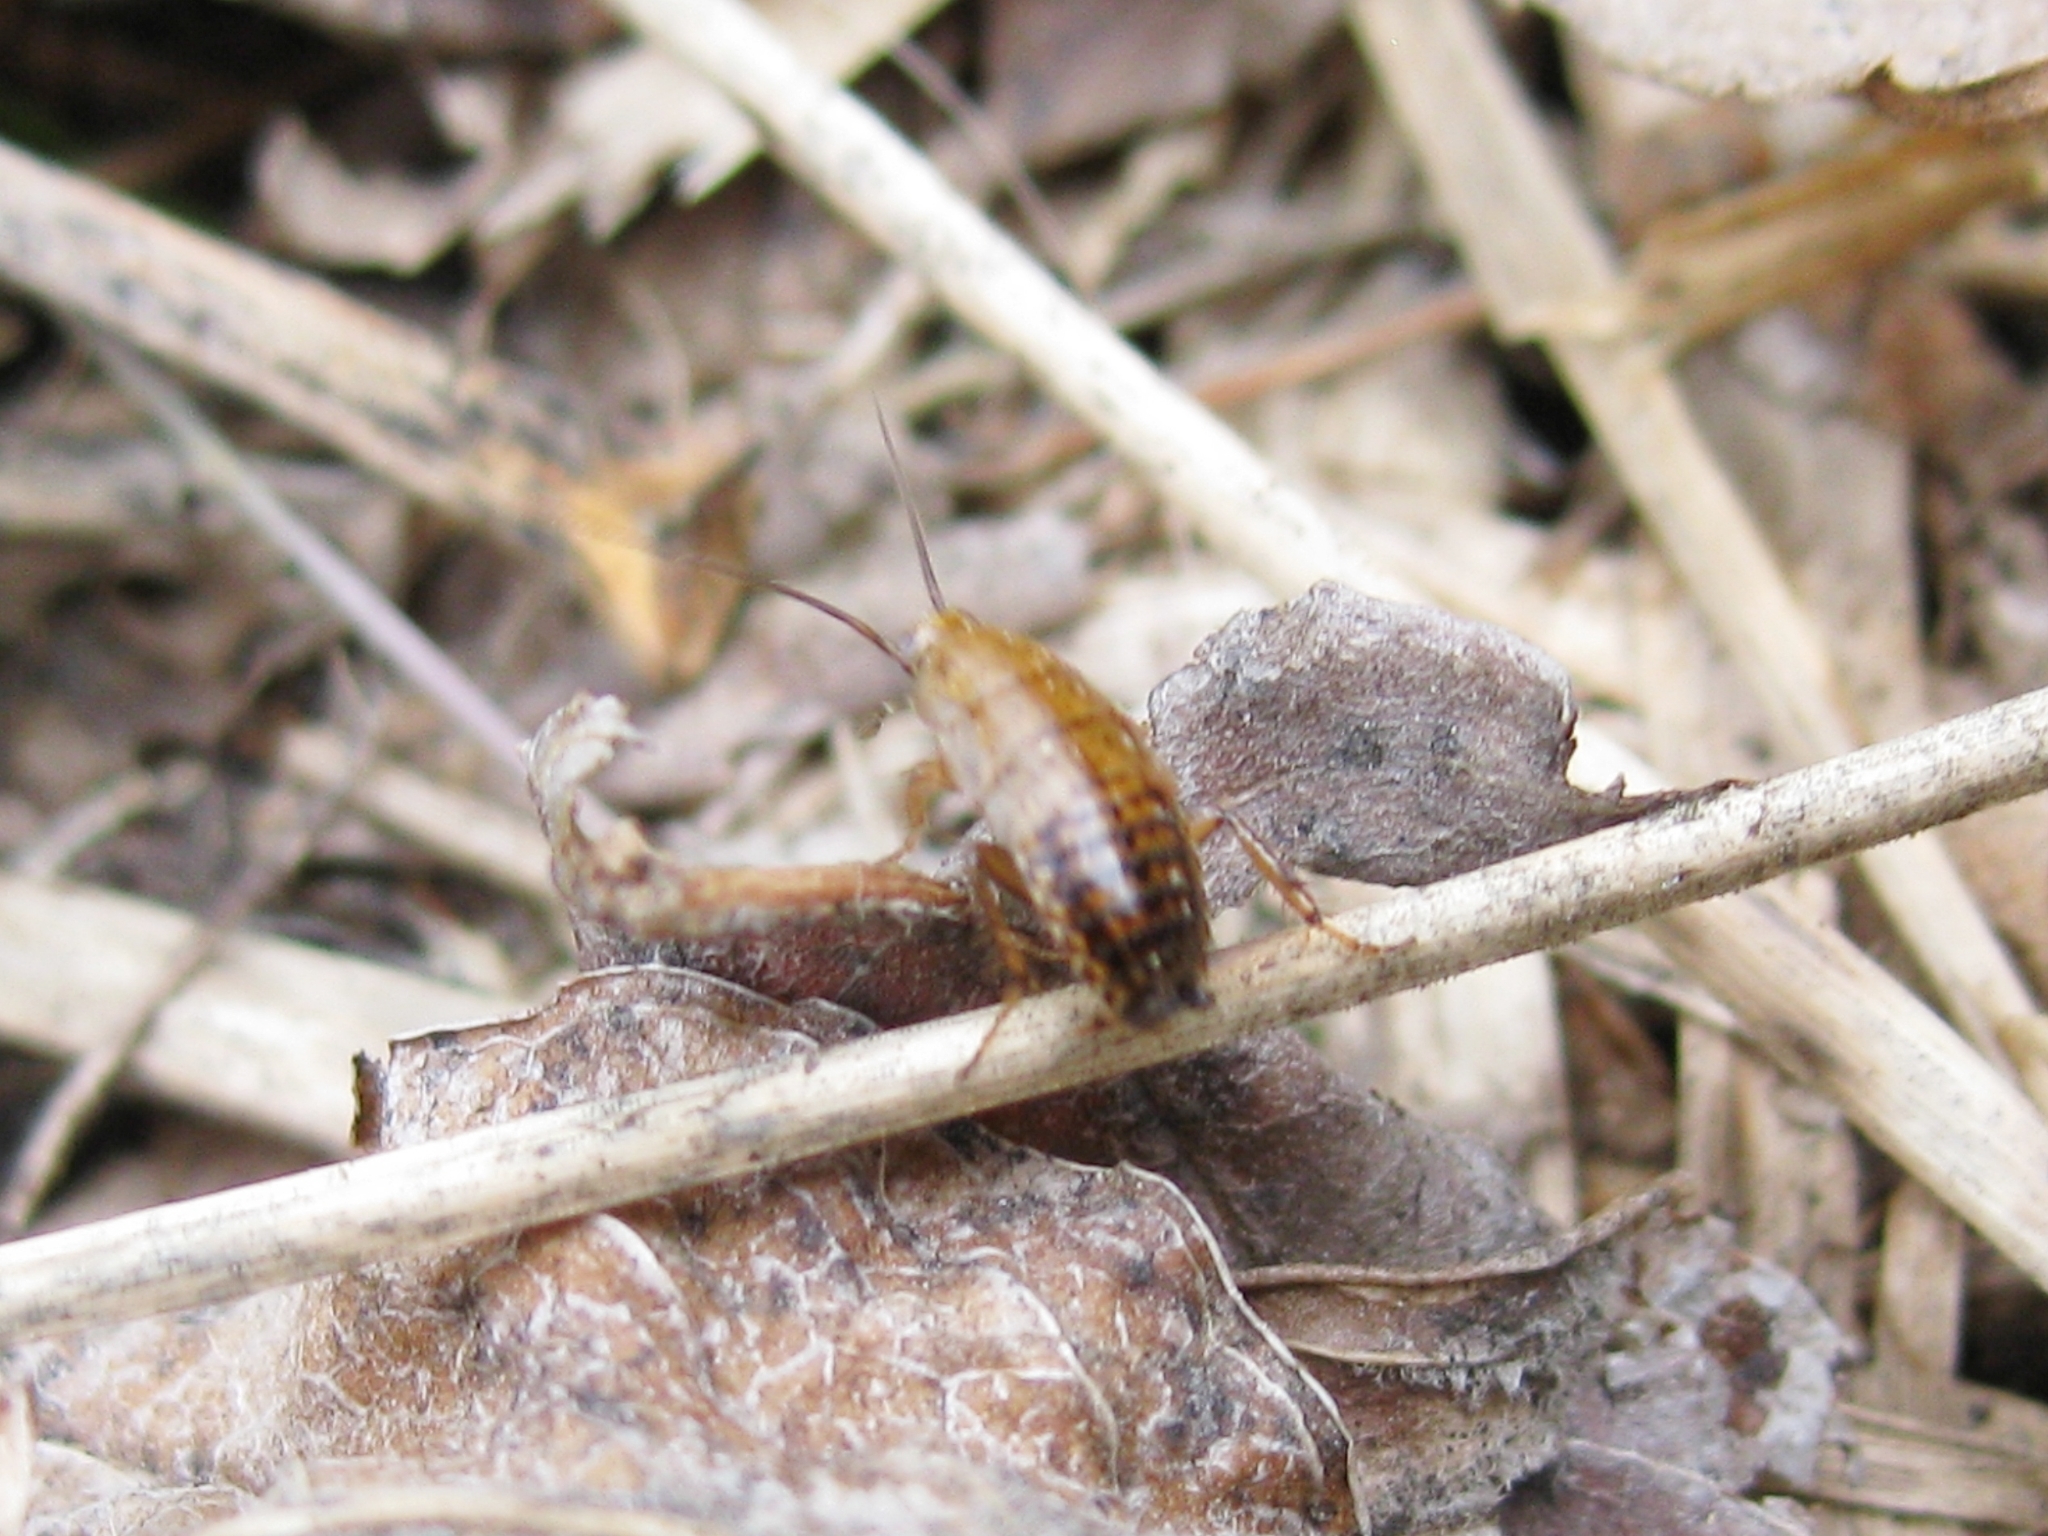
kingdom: Animalia
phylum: Arthropoda
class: Insecta
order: Blattodea
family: Ectobiidae
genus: Ectobius
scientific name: Ectobius
